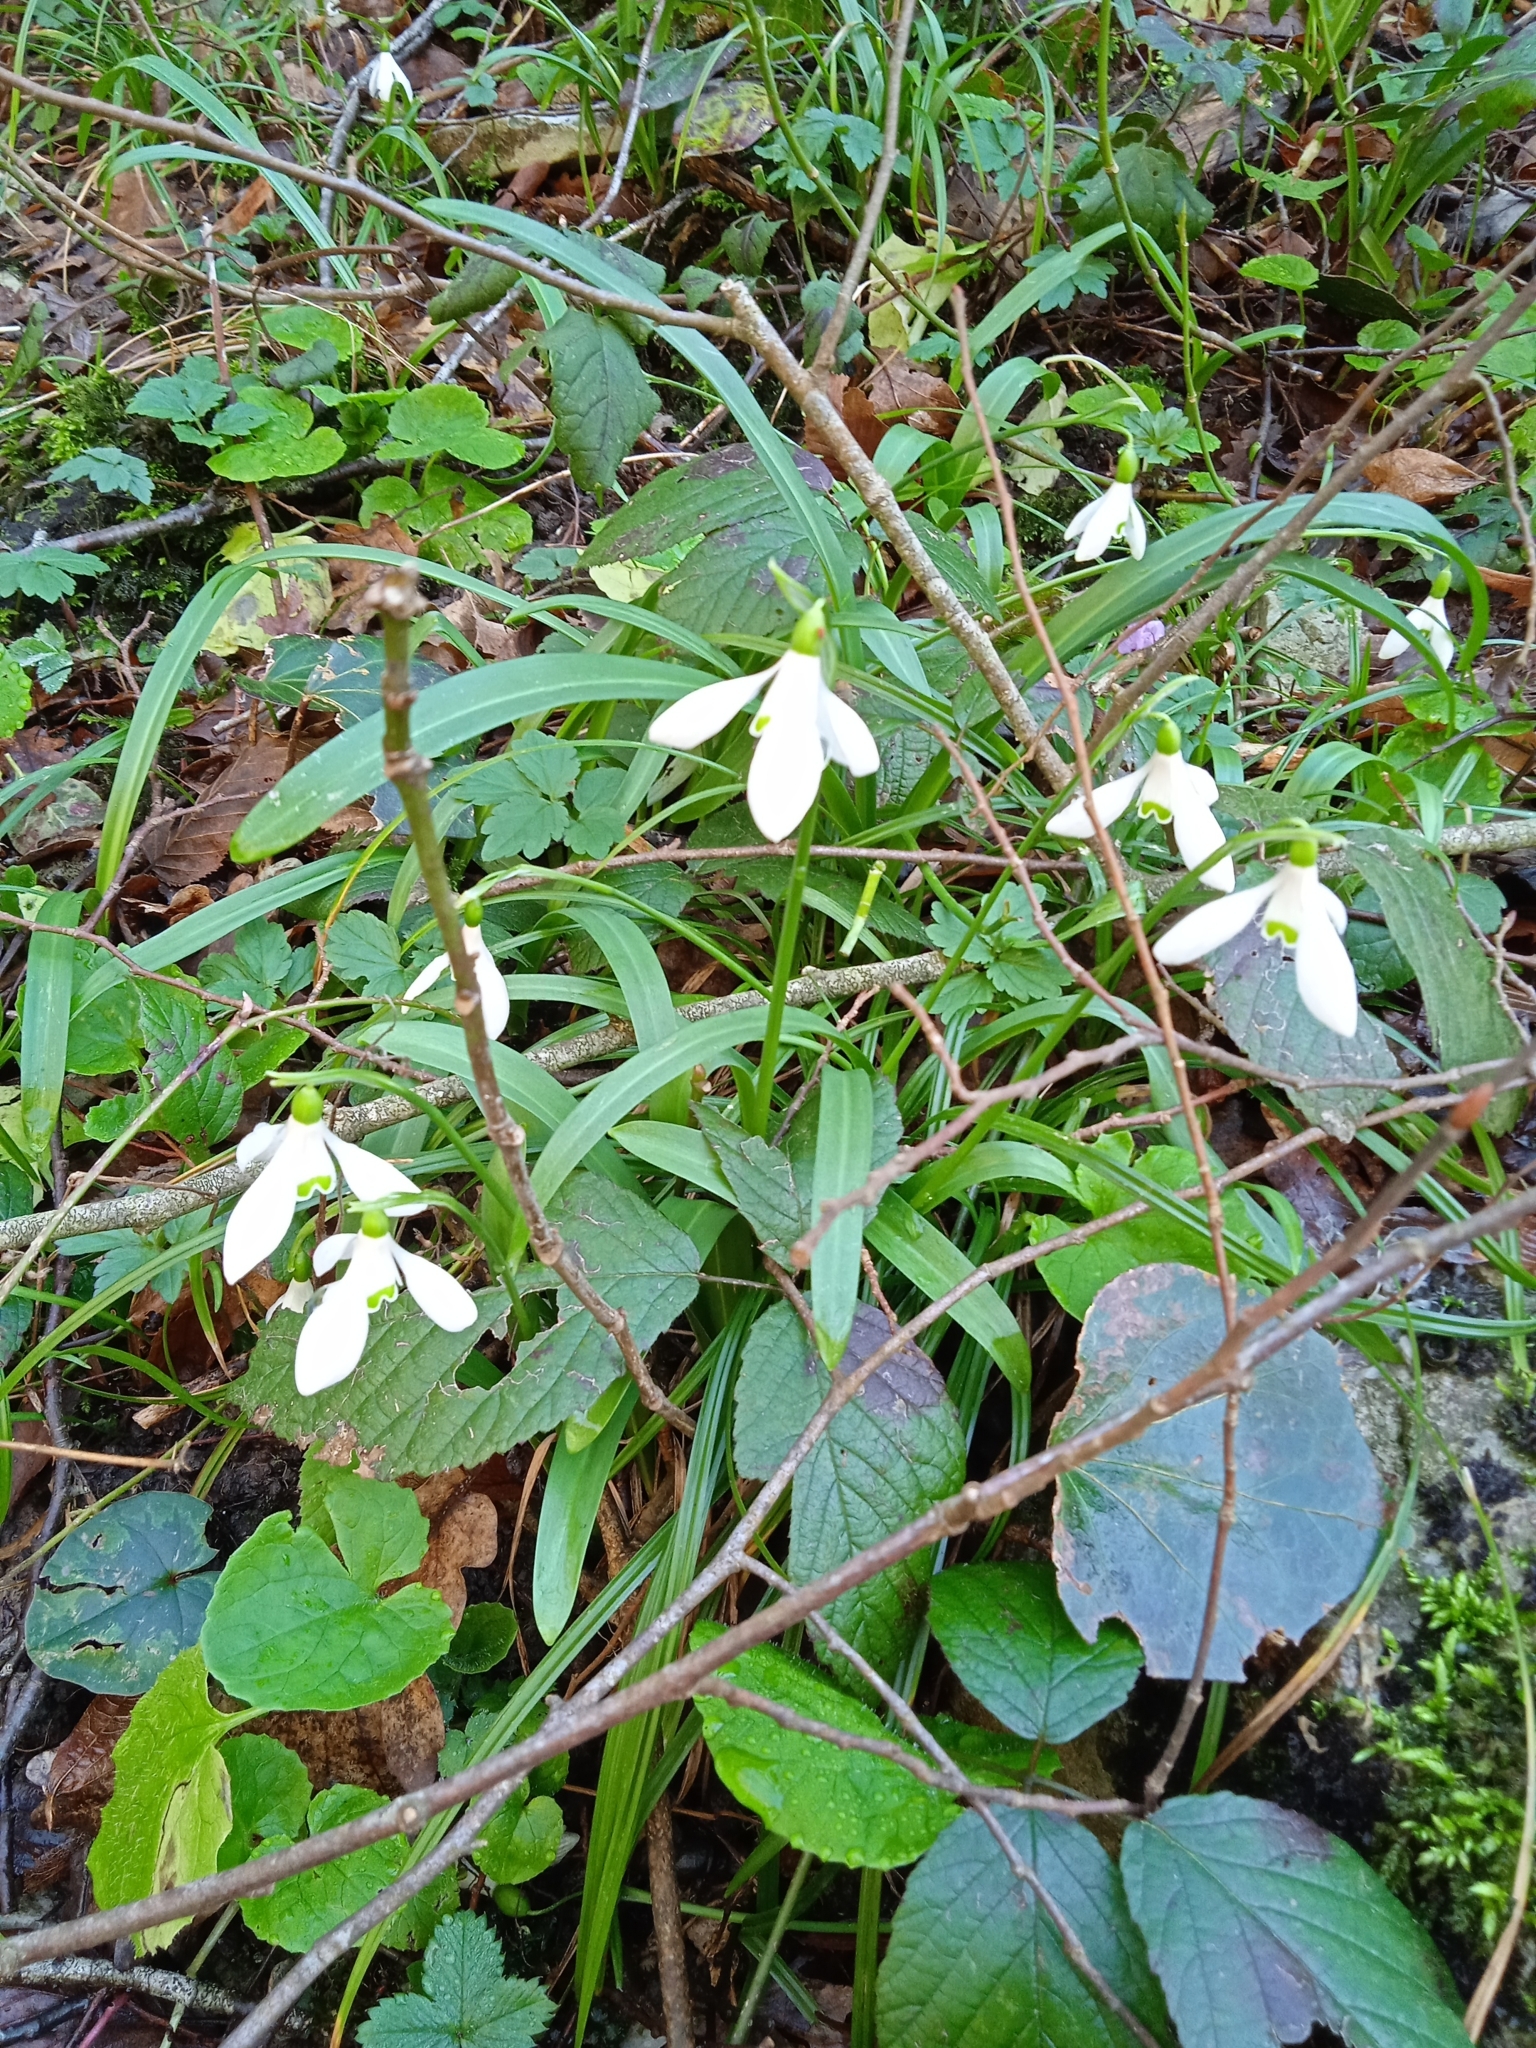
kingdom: Plantae
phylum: Tracheophyta
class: Liliopsida
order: Asparagales
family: Amaryllidaceae
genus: Galanthus
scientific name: Galanthus rizehensis
